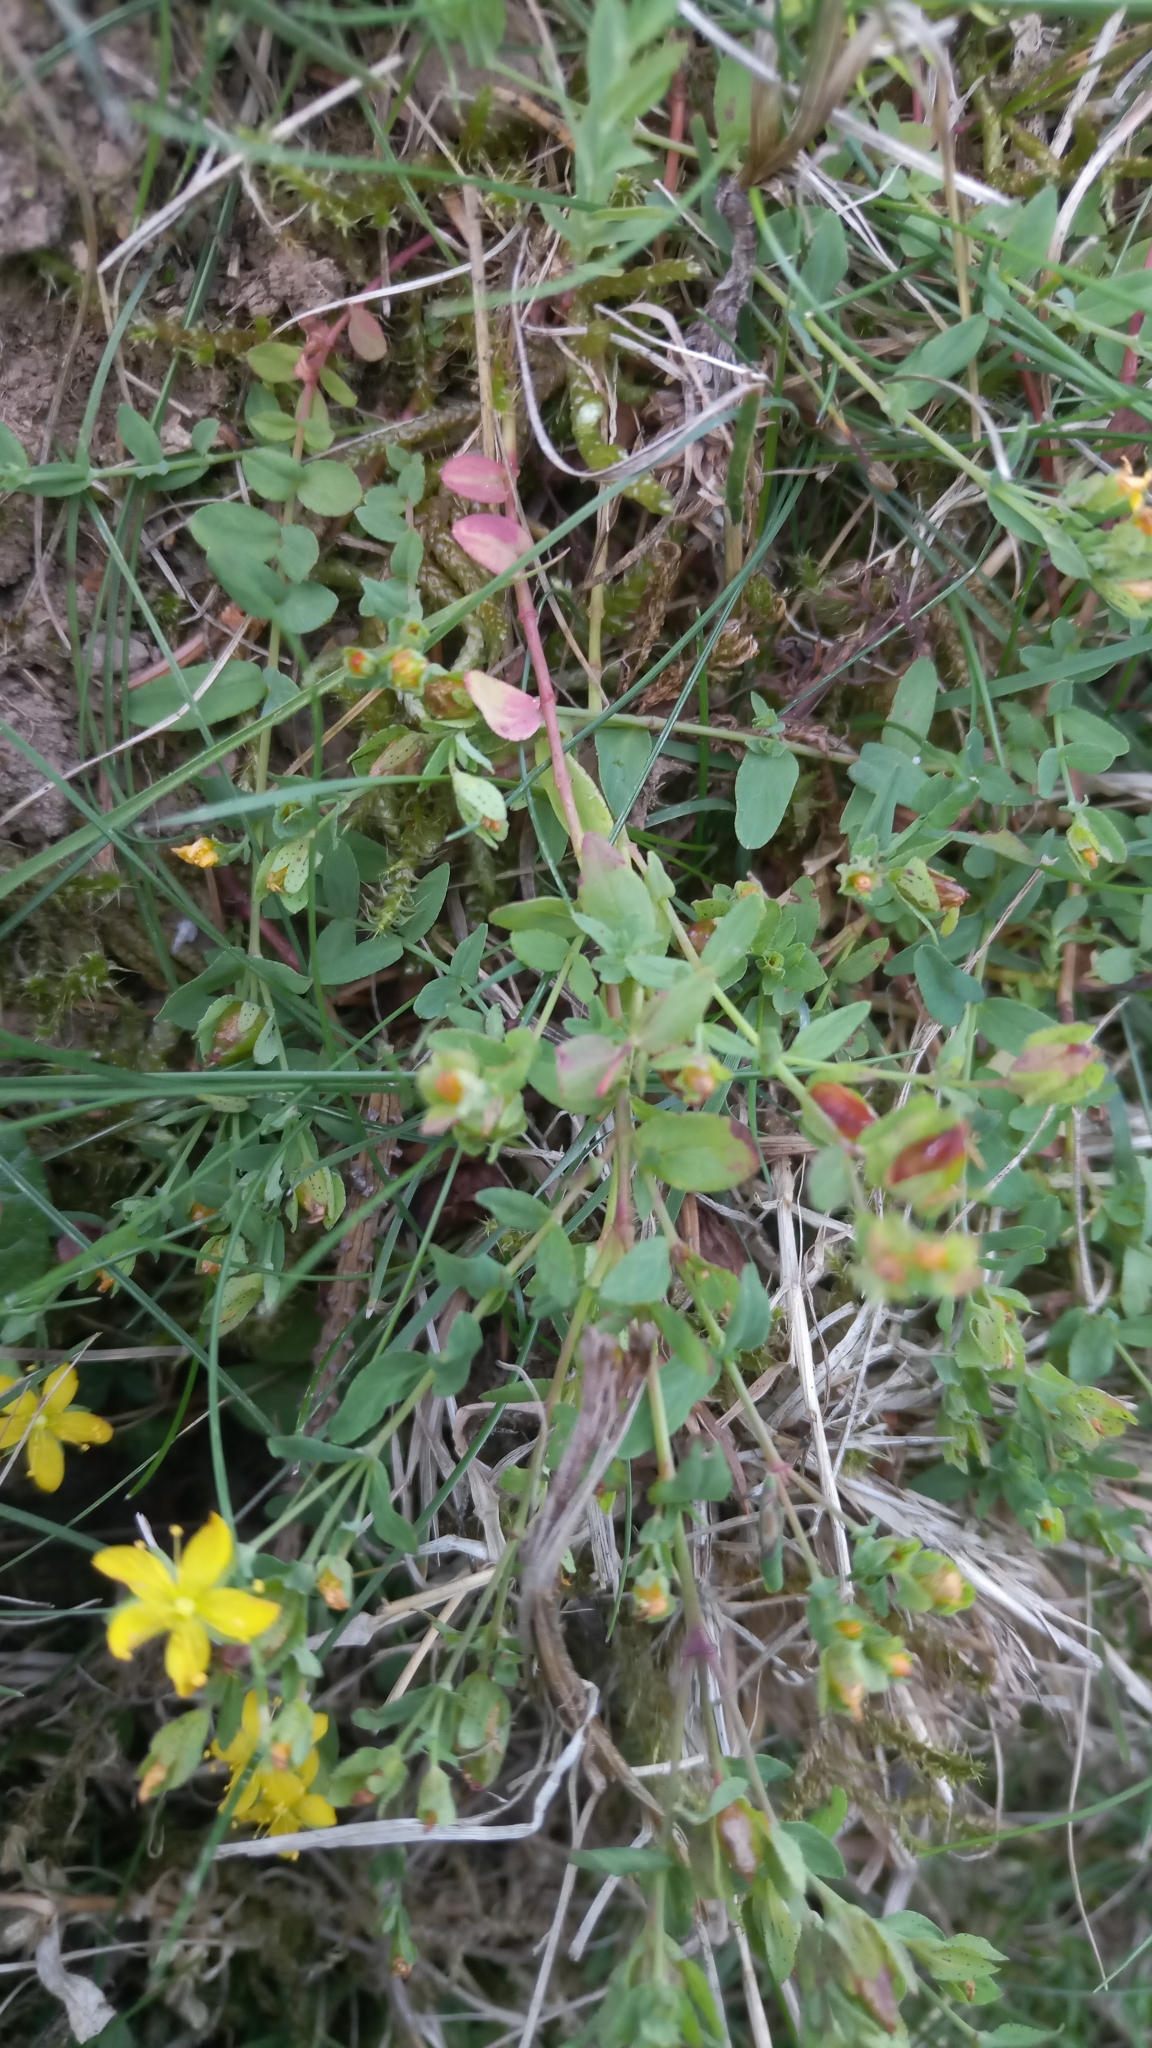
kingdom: Plantae
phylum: Tracheophyta
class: Magnoliopsida
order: Malpighiales
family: Hypericaceae
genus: Hypericum
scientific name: Hypericum humifusum
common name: Trailing st. john's-wort
